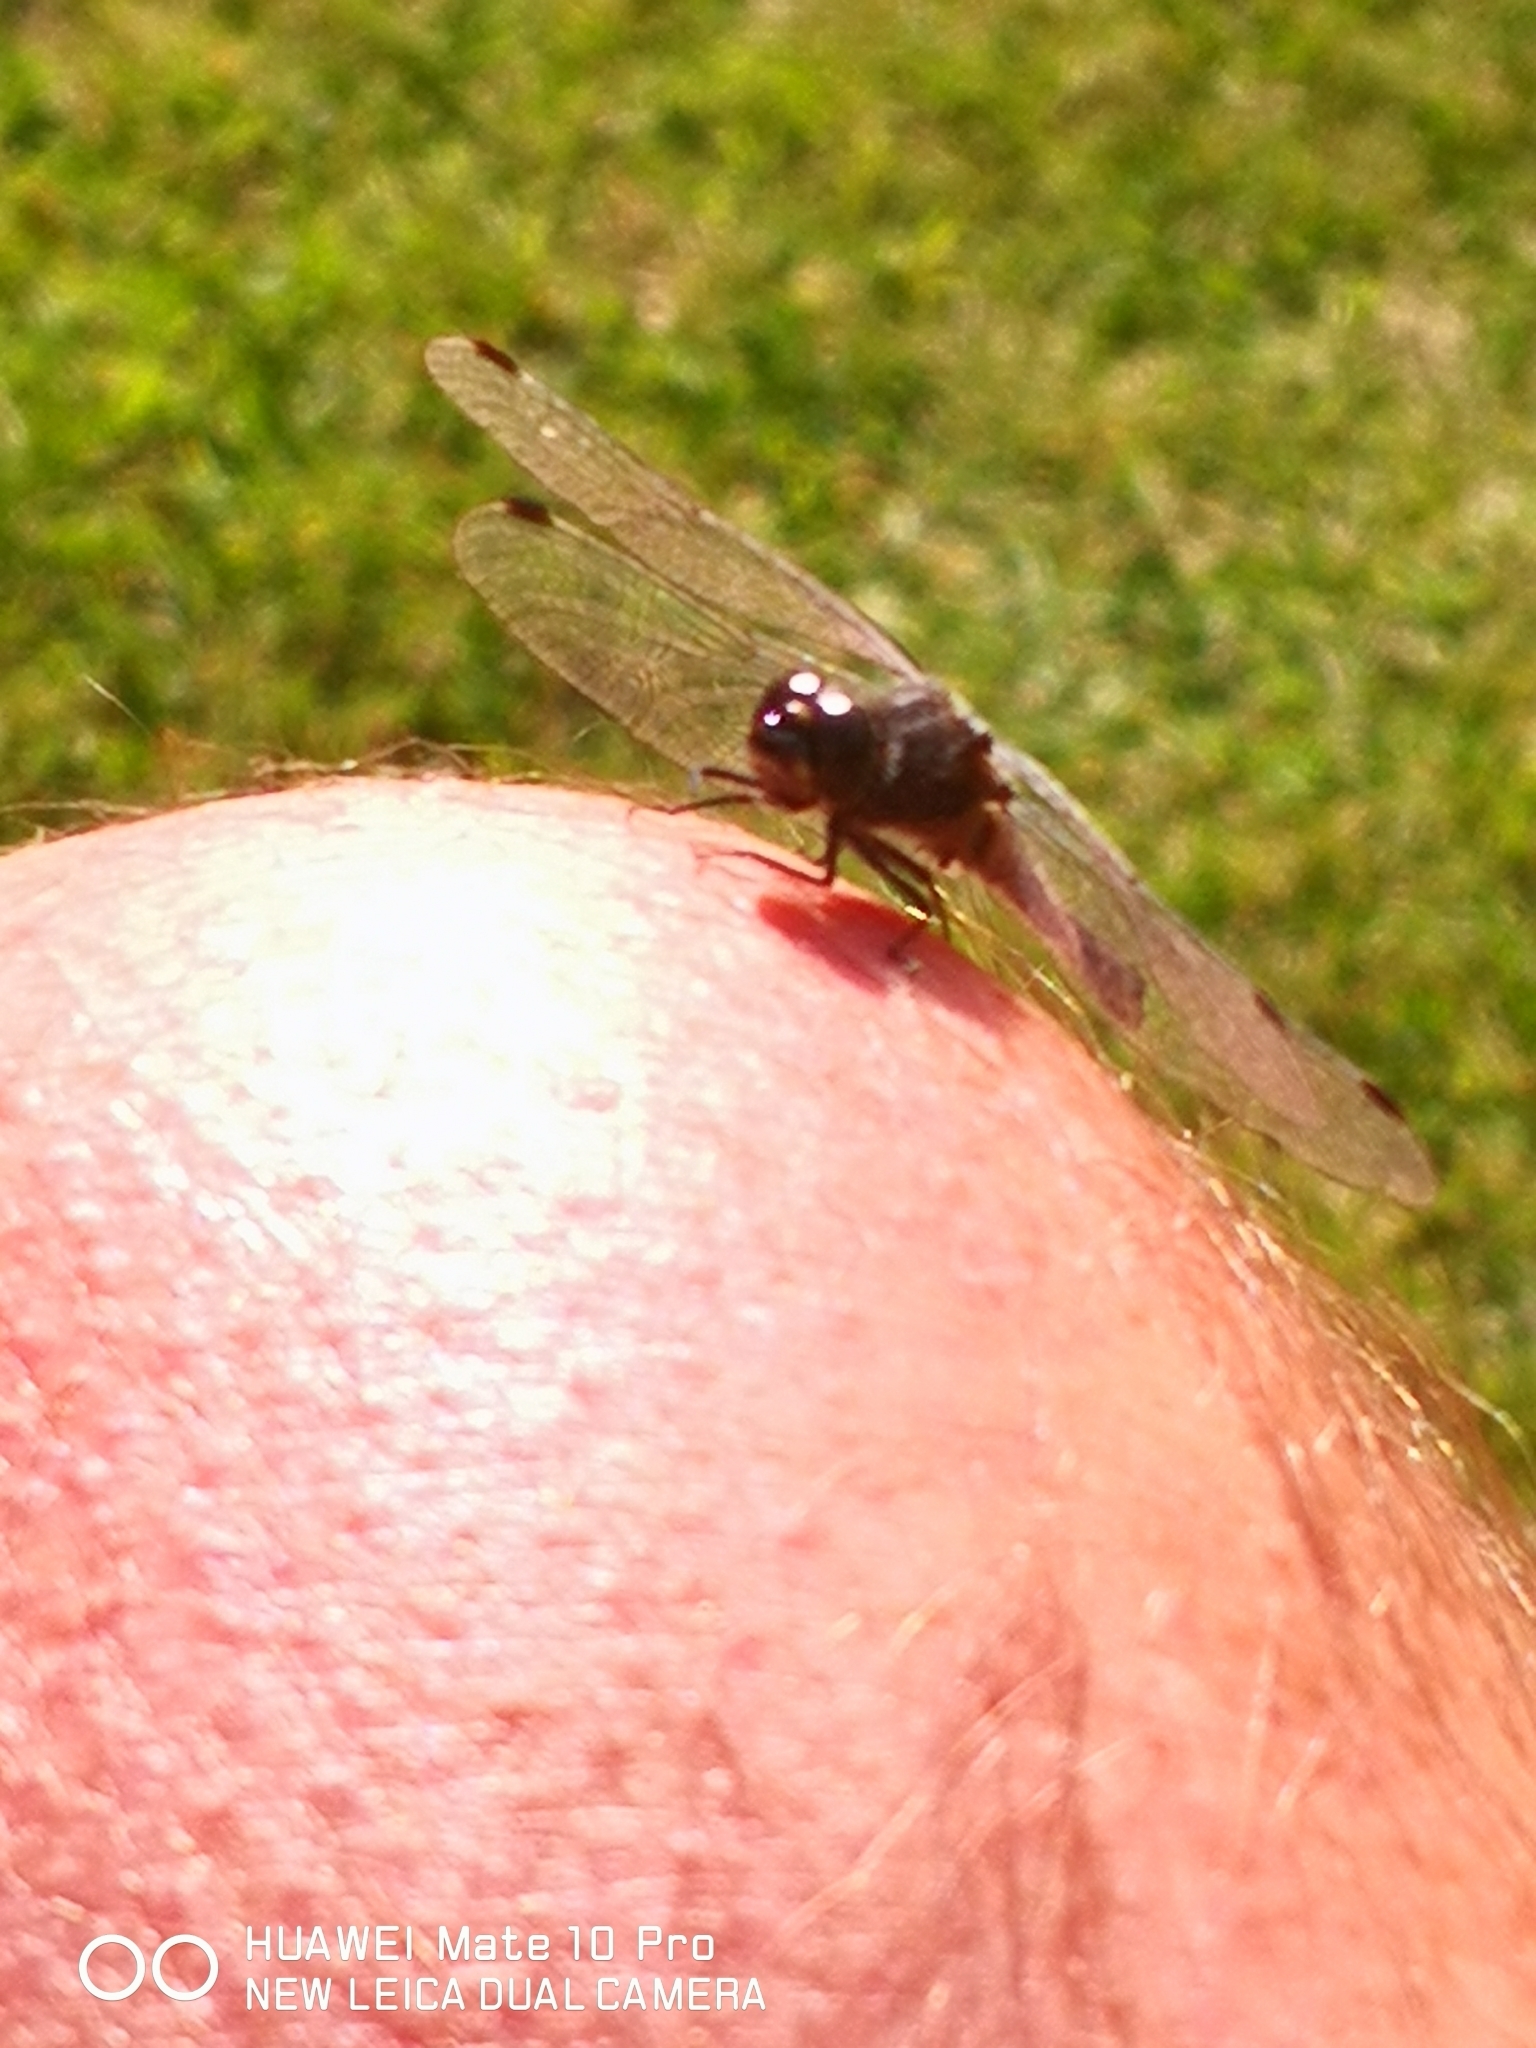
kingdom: Animalia
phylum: Arthropoda
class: Insecta
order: Odonata
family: Libellulidae
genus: Sympetrum
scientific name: Sympetrum danae
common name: Black darter
